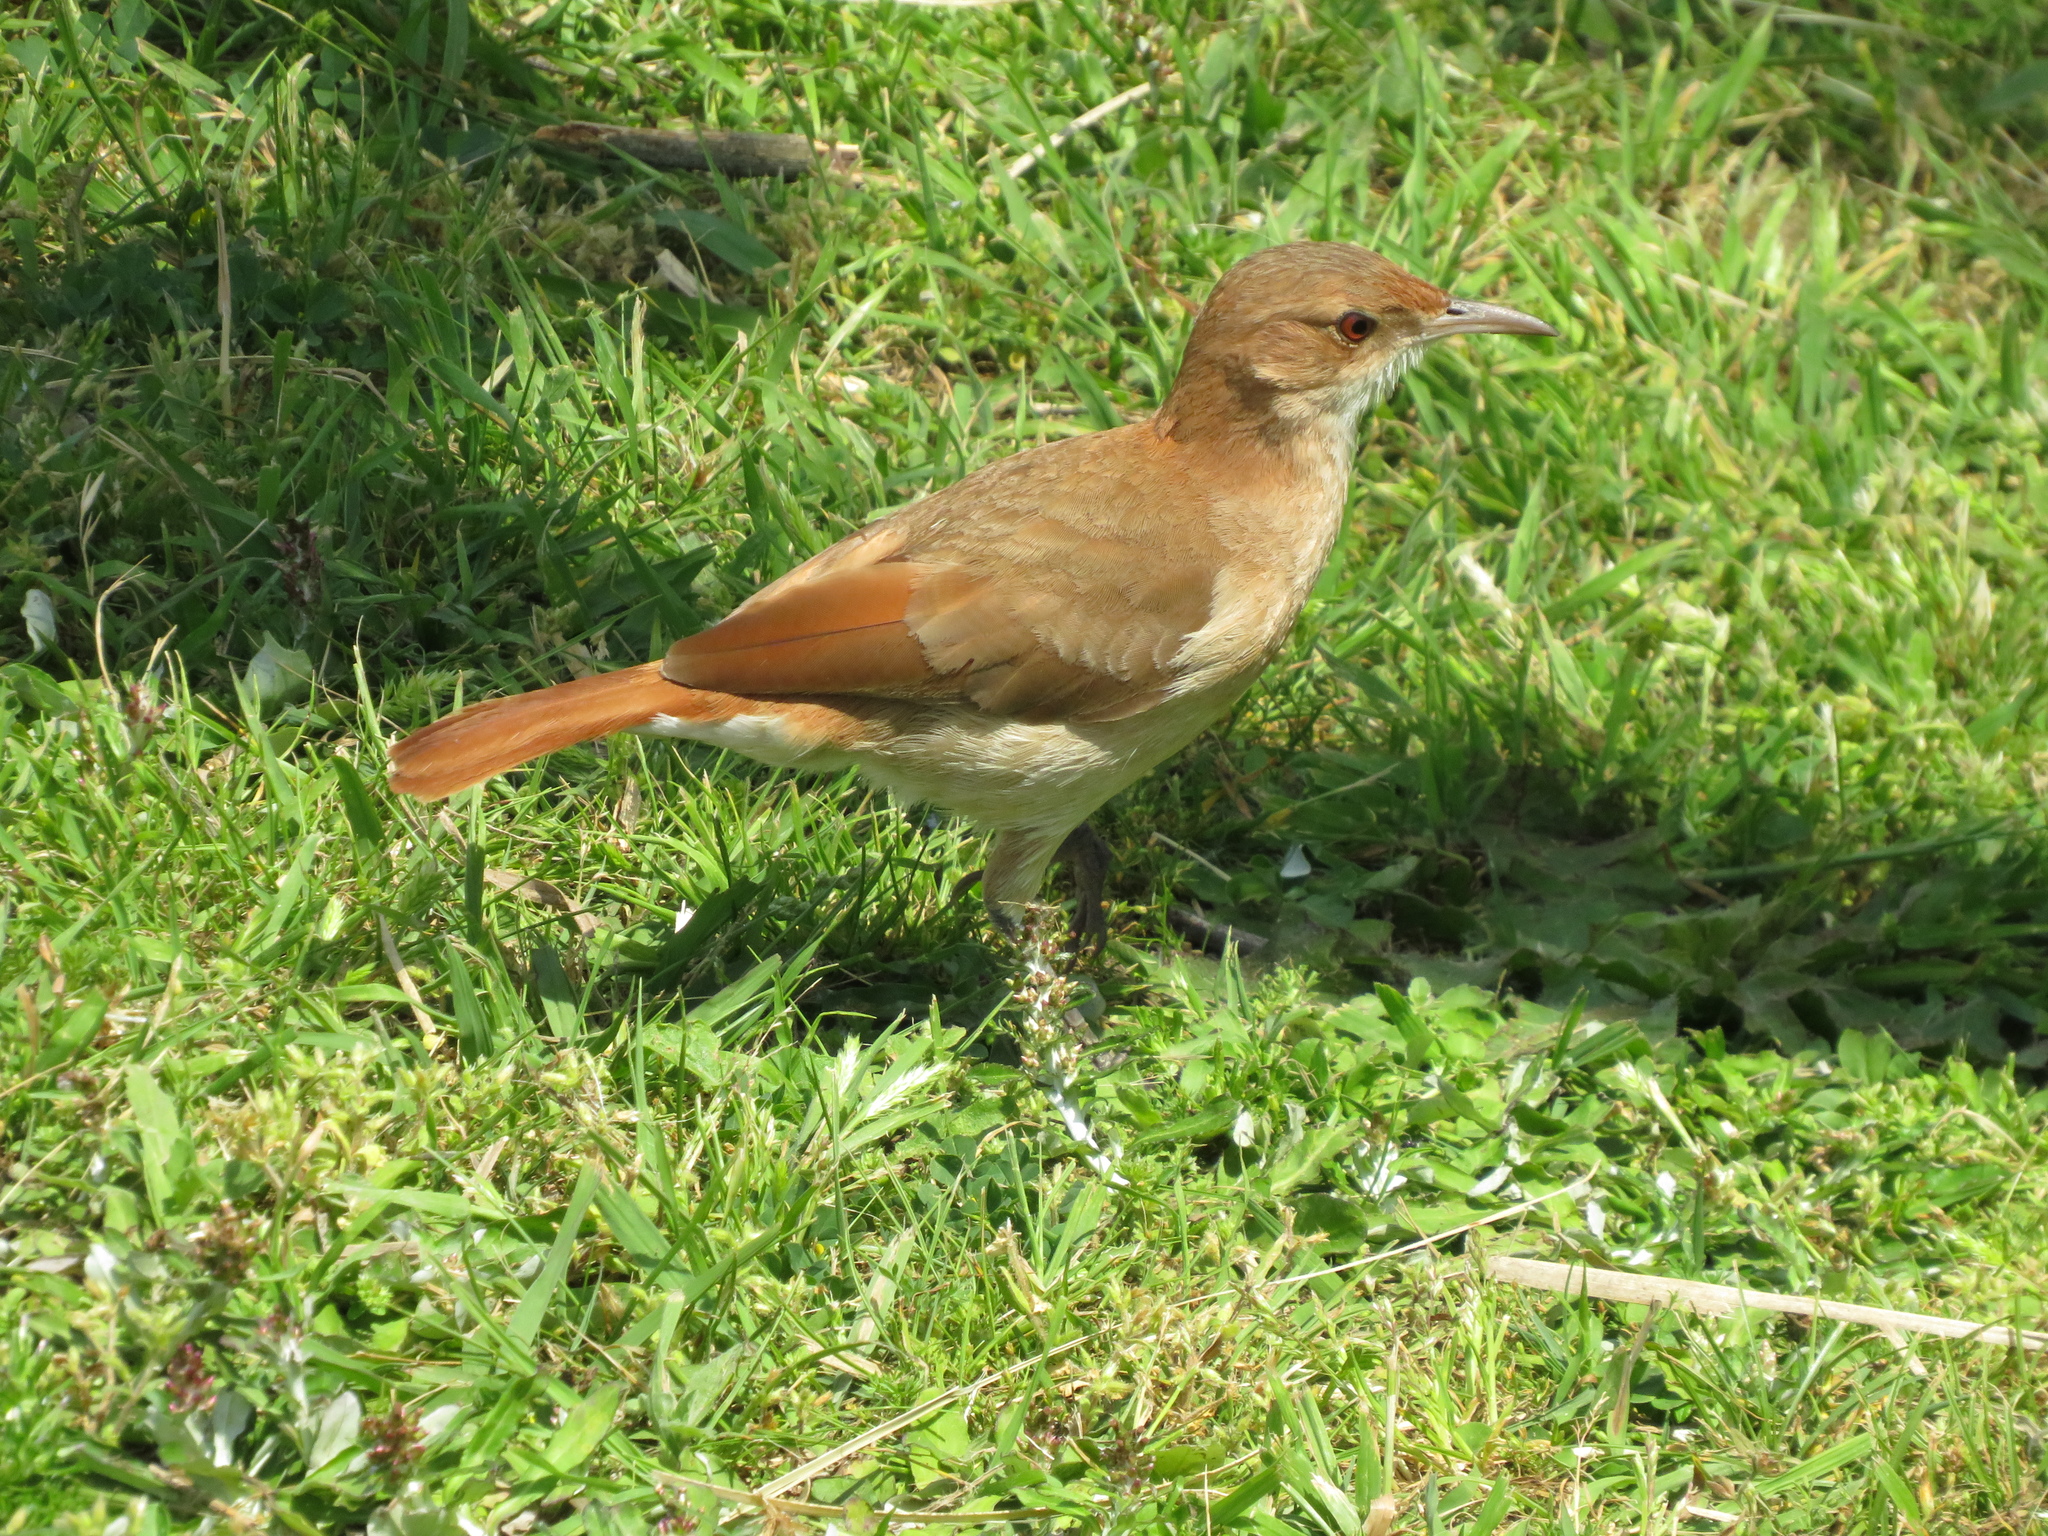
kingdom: Animalia
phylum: Chordata
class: Aves
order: Passeriformes
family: Furnariidae
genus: Furnarius
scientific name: Furnarius rufus
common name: Rufous hornero
